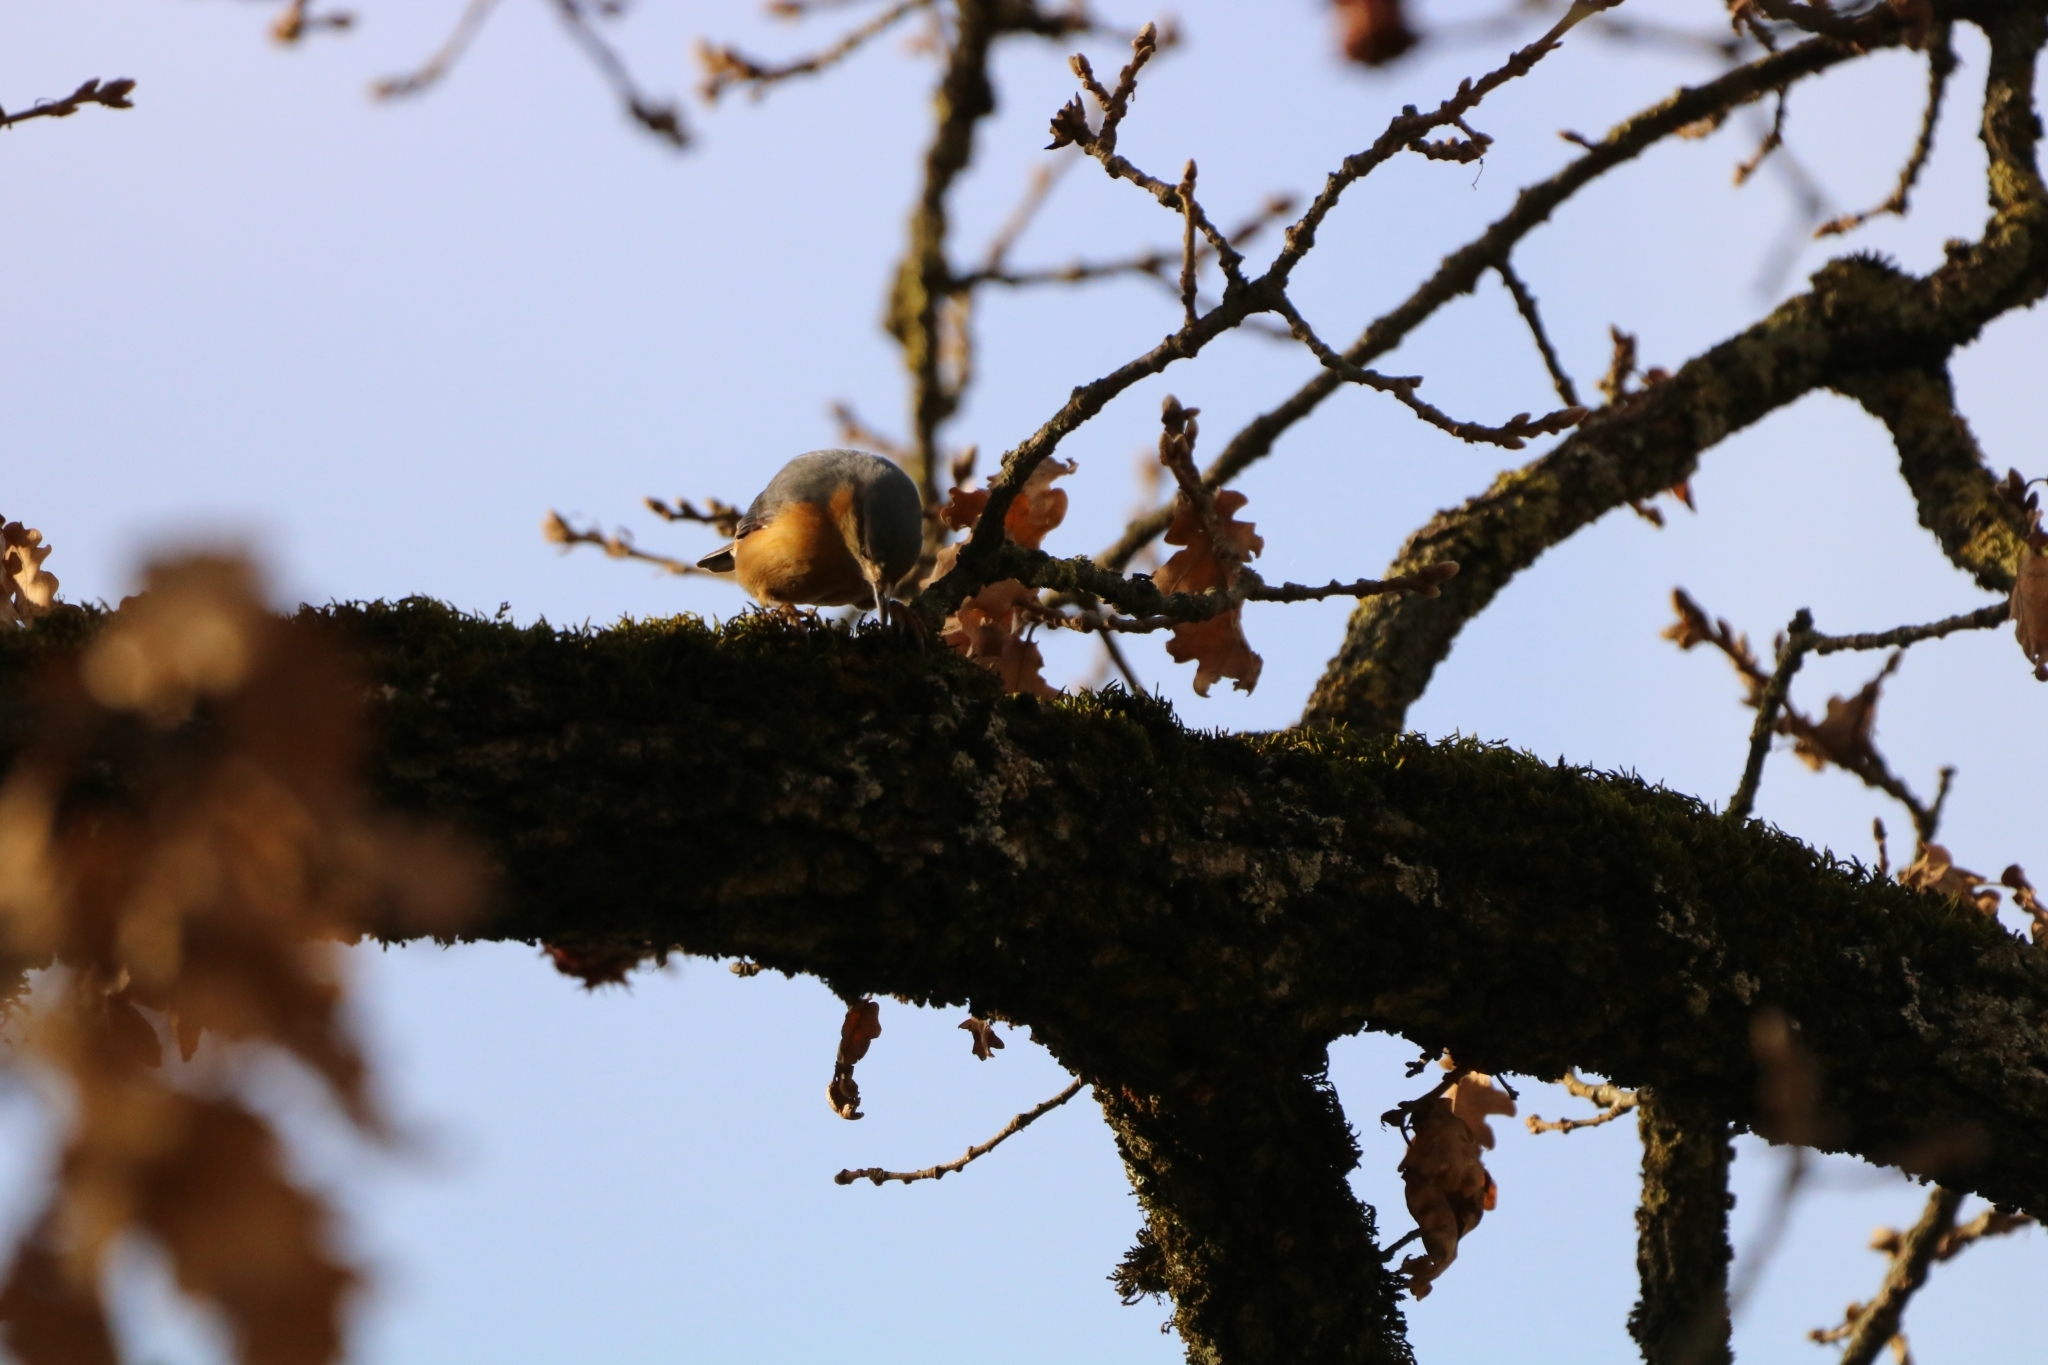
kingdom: Animalia
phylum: Chordata
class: Aves
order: Passeriformes
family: Sittidae
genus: Sitta
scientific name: Sitta europaea
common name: Eurasian nuthatch
